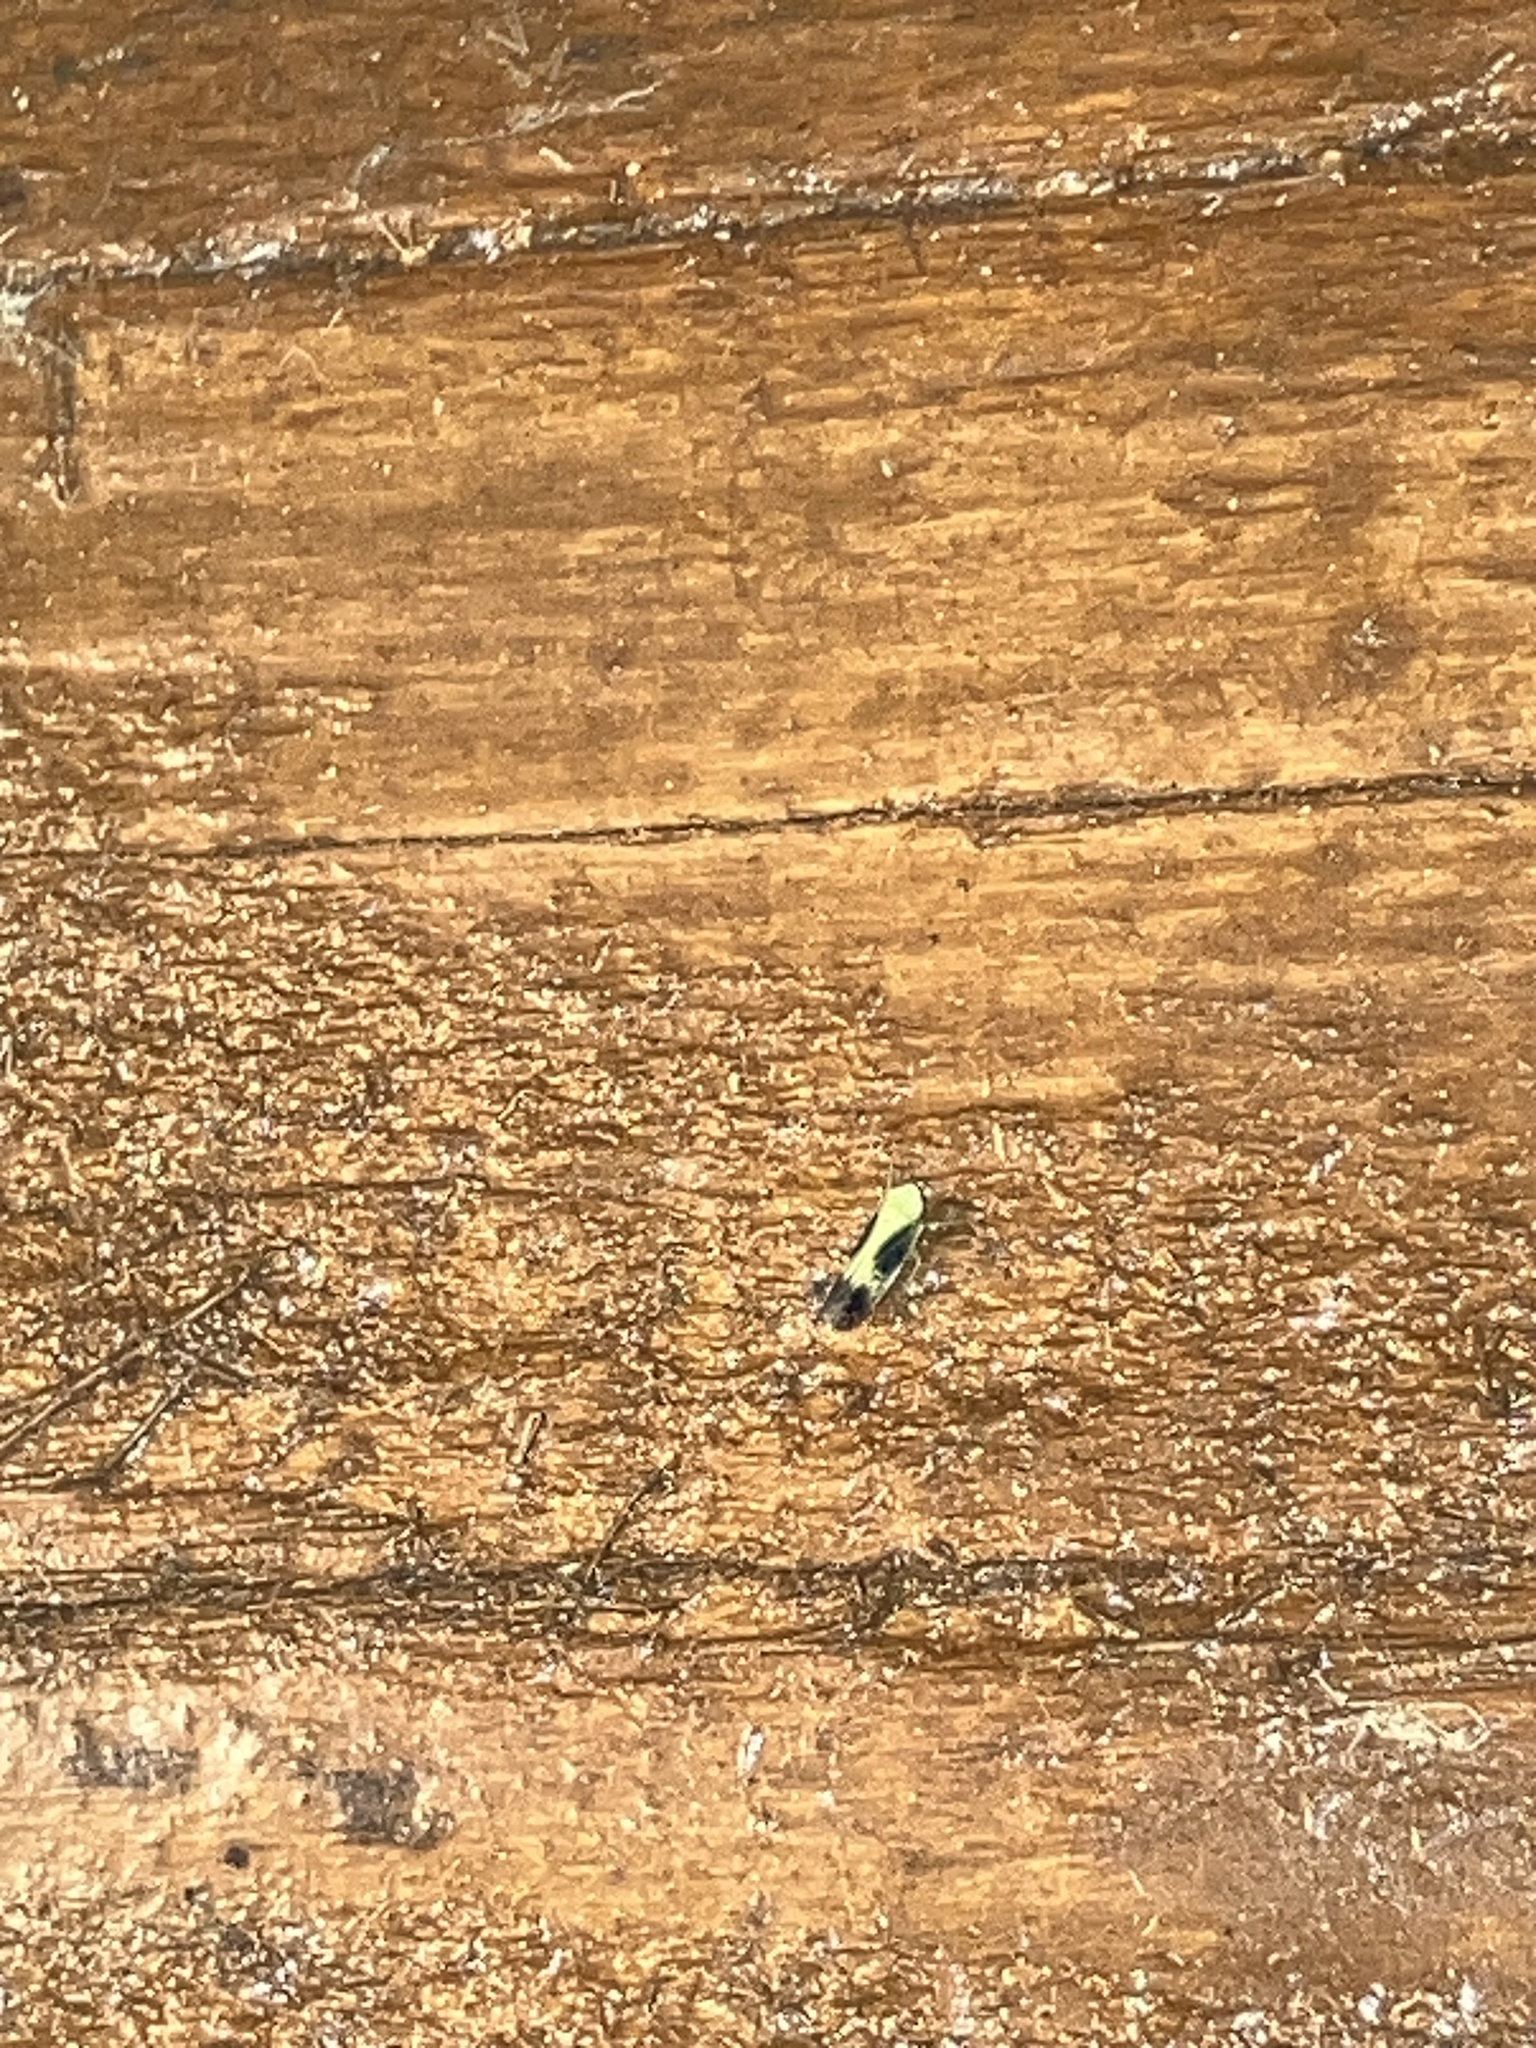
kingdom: Animalia
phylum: Arthropoda
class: Insecta
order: Hemiptera
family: Cicadellidae
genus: Graminella
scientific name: Graminella nigripennis
